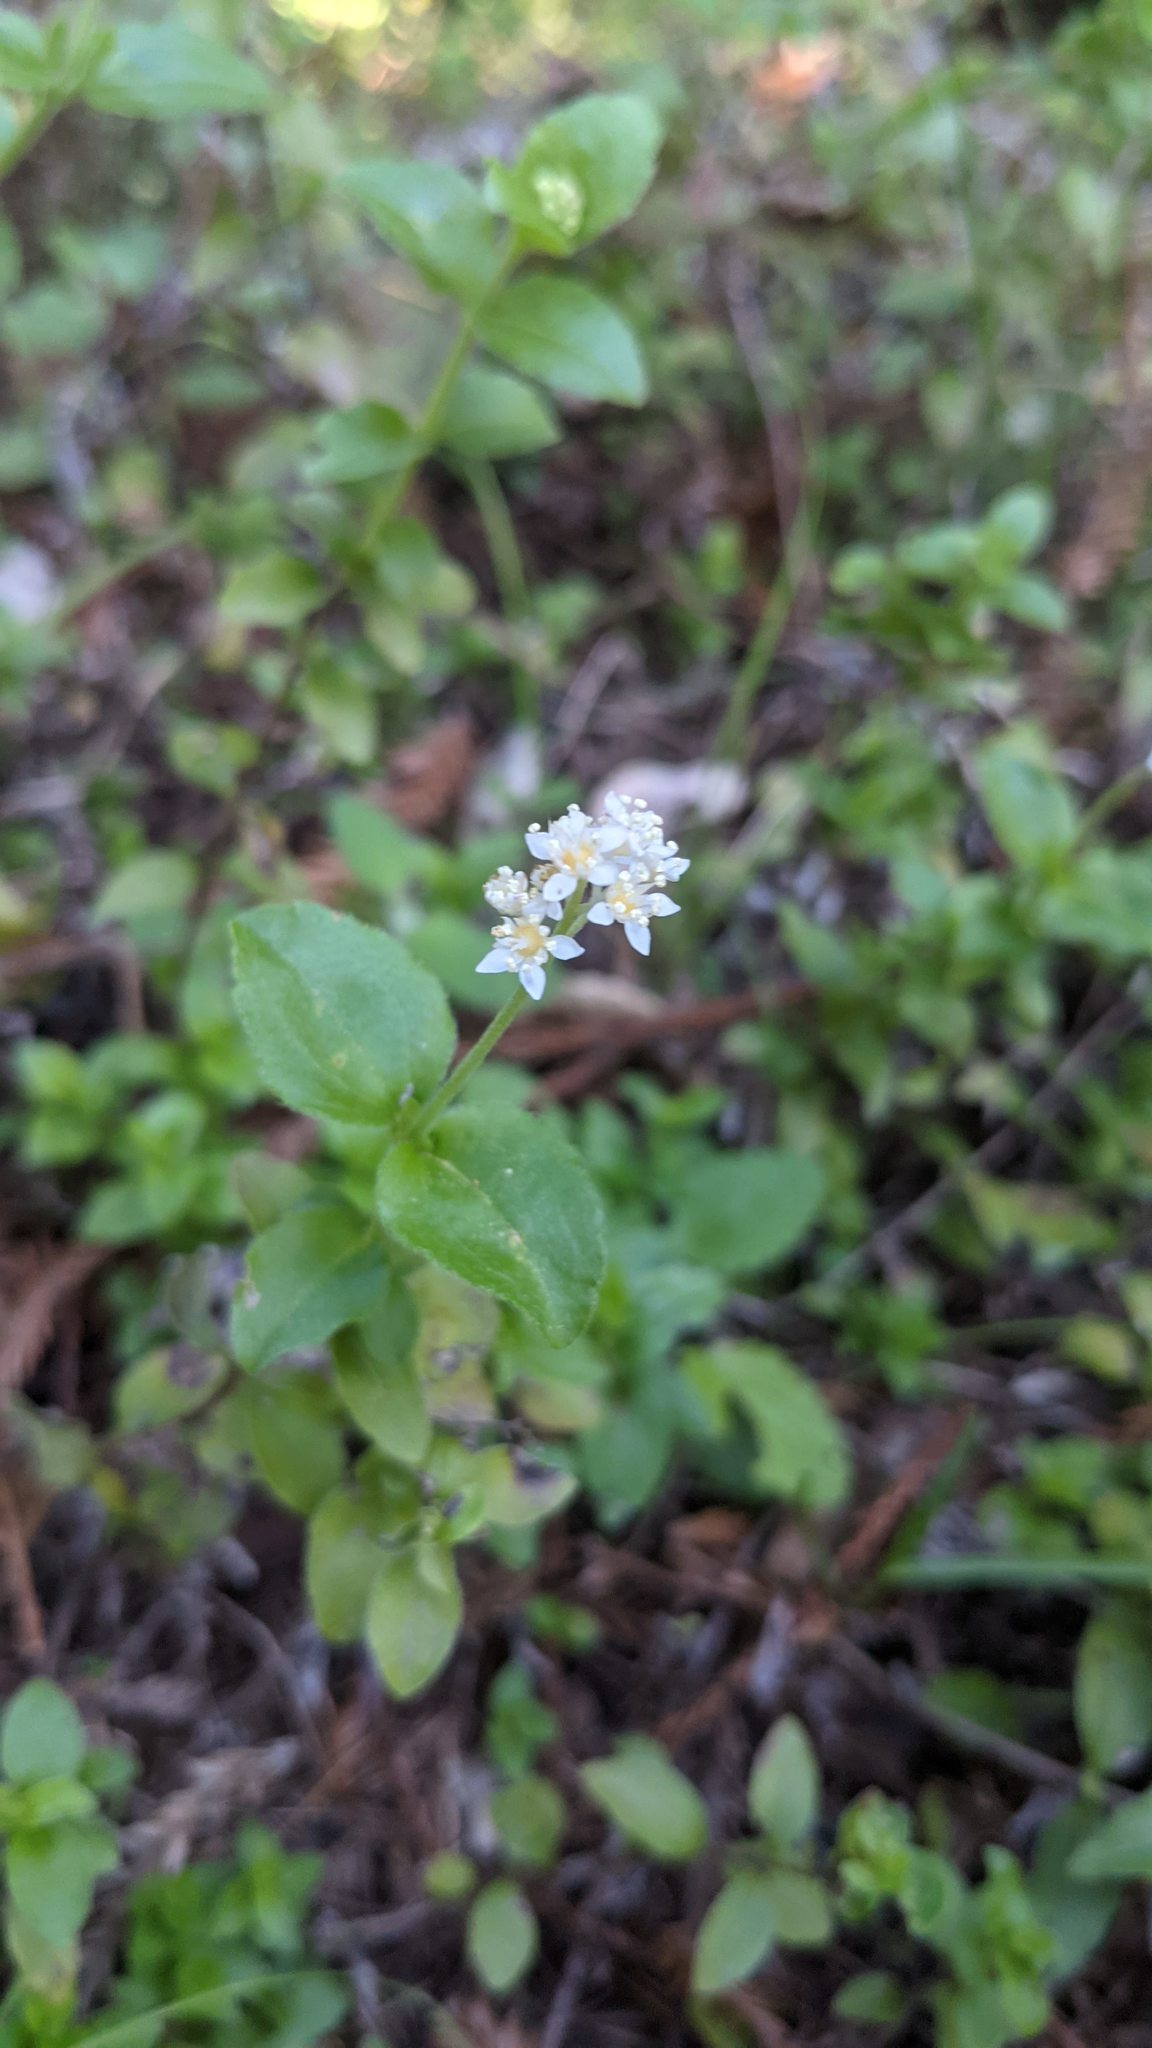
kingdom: Plantae
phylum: Tracheophyta
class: Magnoliopsida
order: Cornales
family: Hydrangeaceae
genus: Whipplea
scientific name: Whipplea modesta
